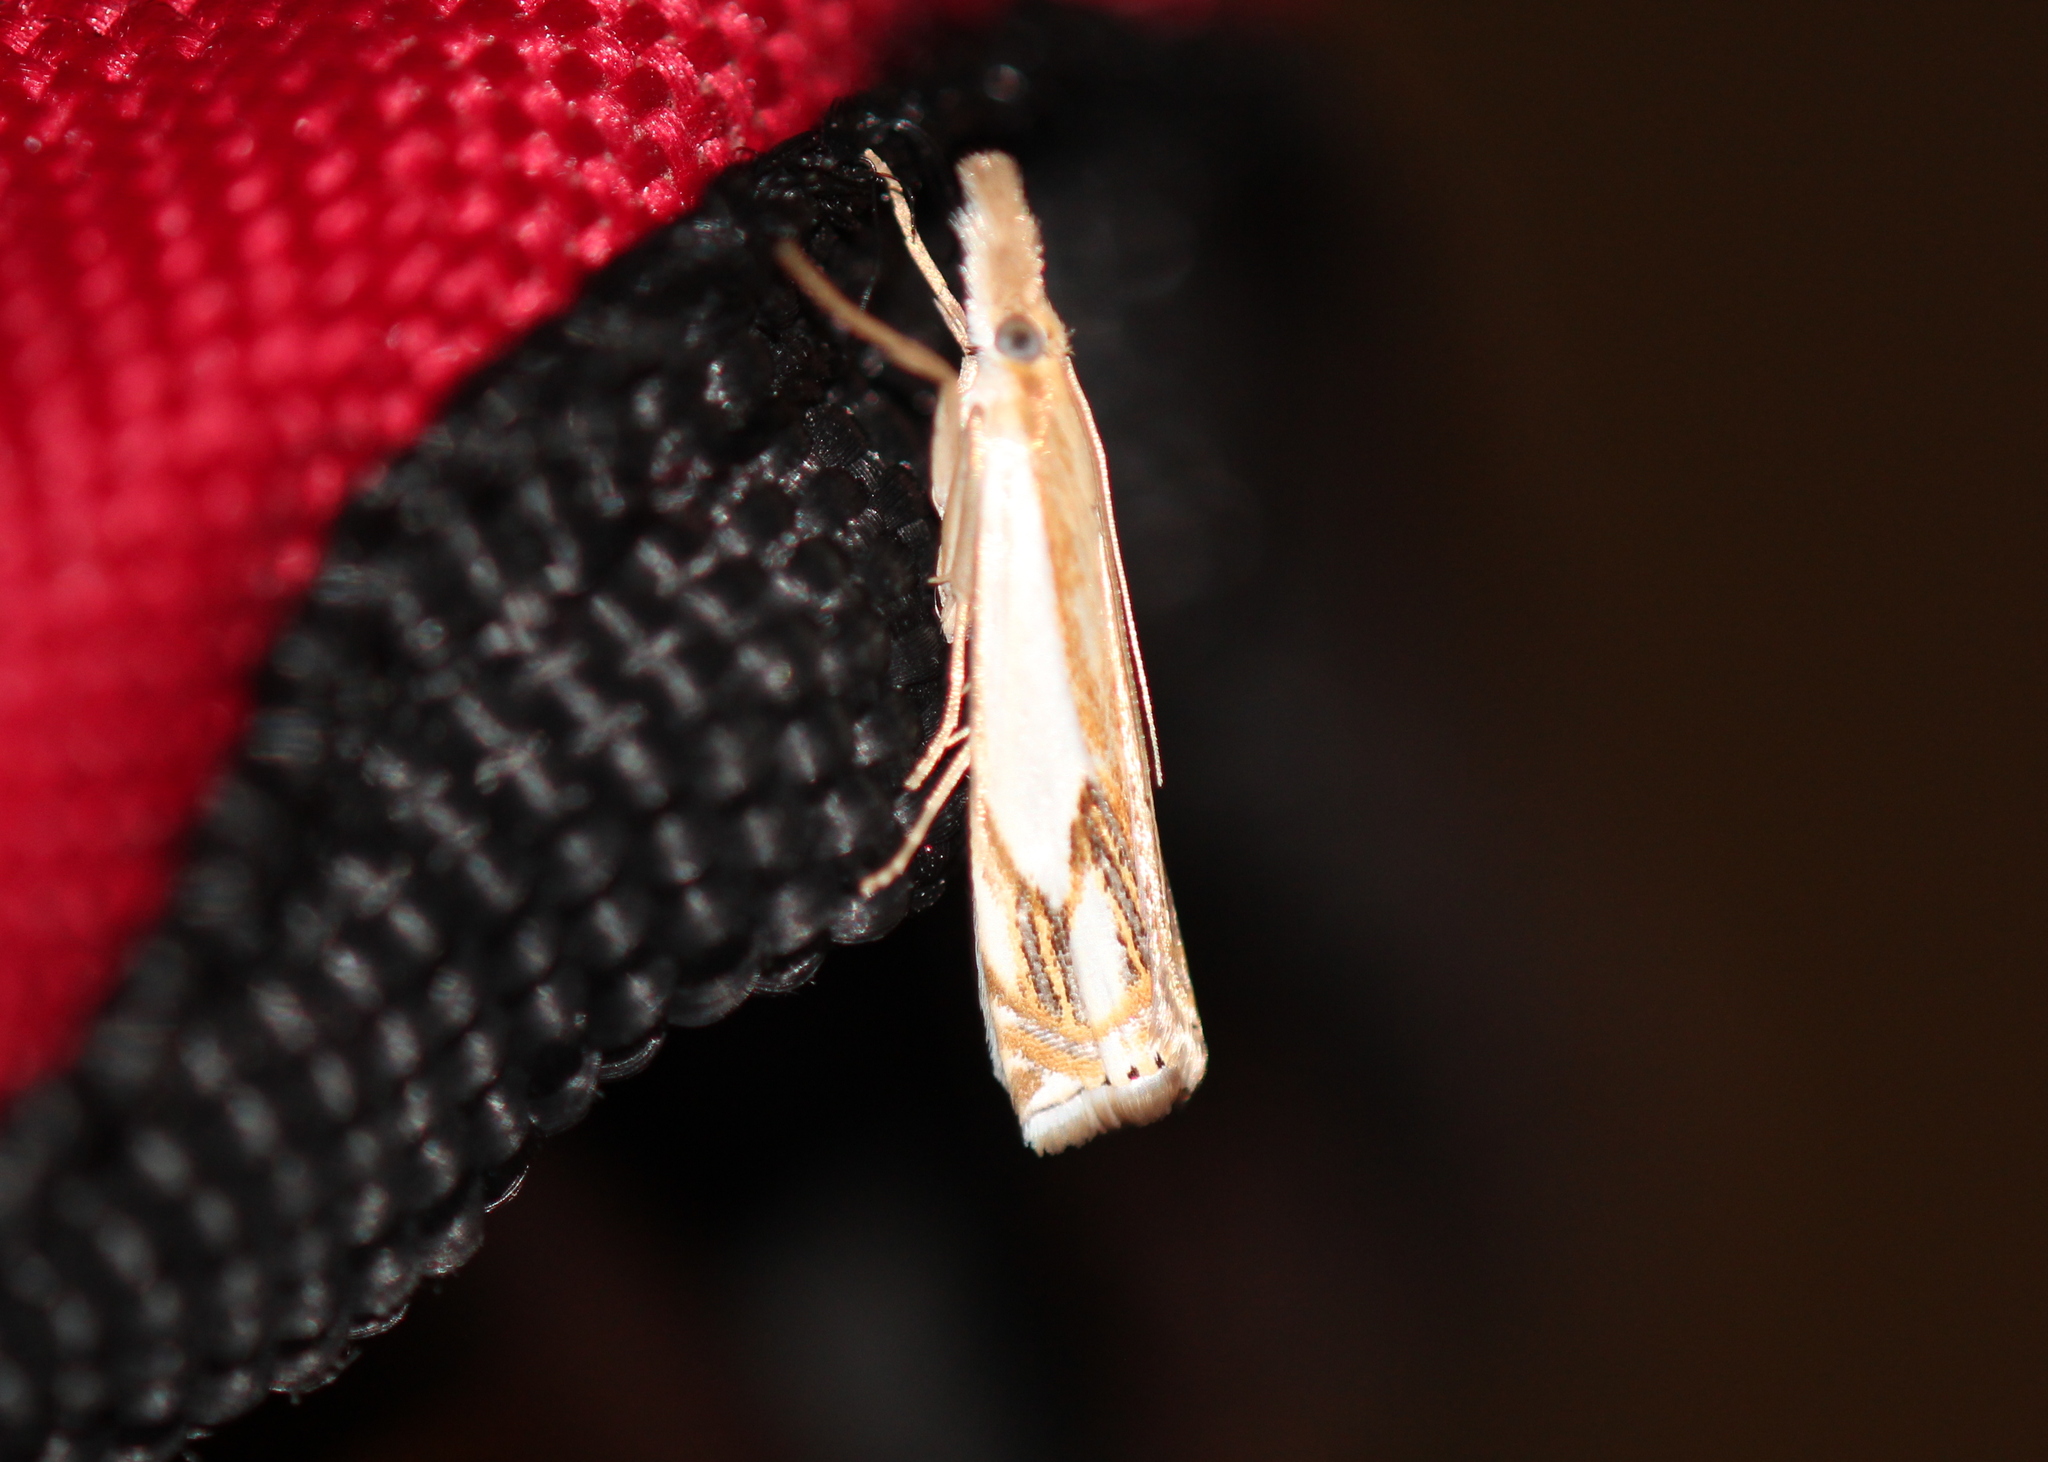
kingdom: Animalia
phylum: Arthropoda
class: Insecta
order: Lepidoptera
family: Crambidae
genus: Crambus
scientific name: Crambus agitatellus
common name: Double-banded grass-veneer
